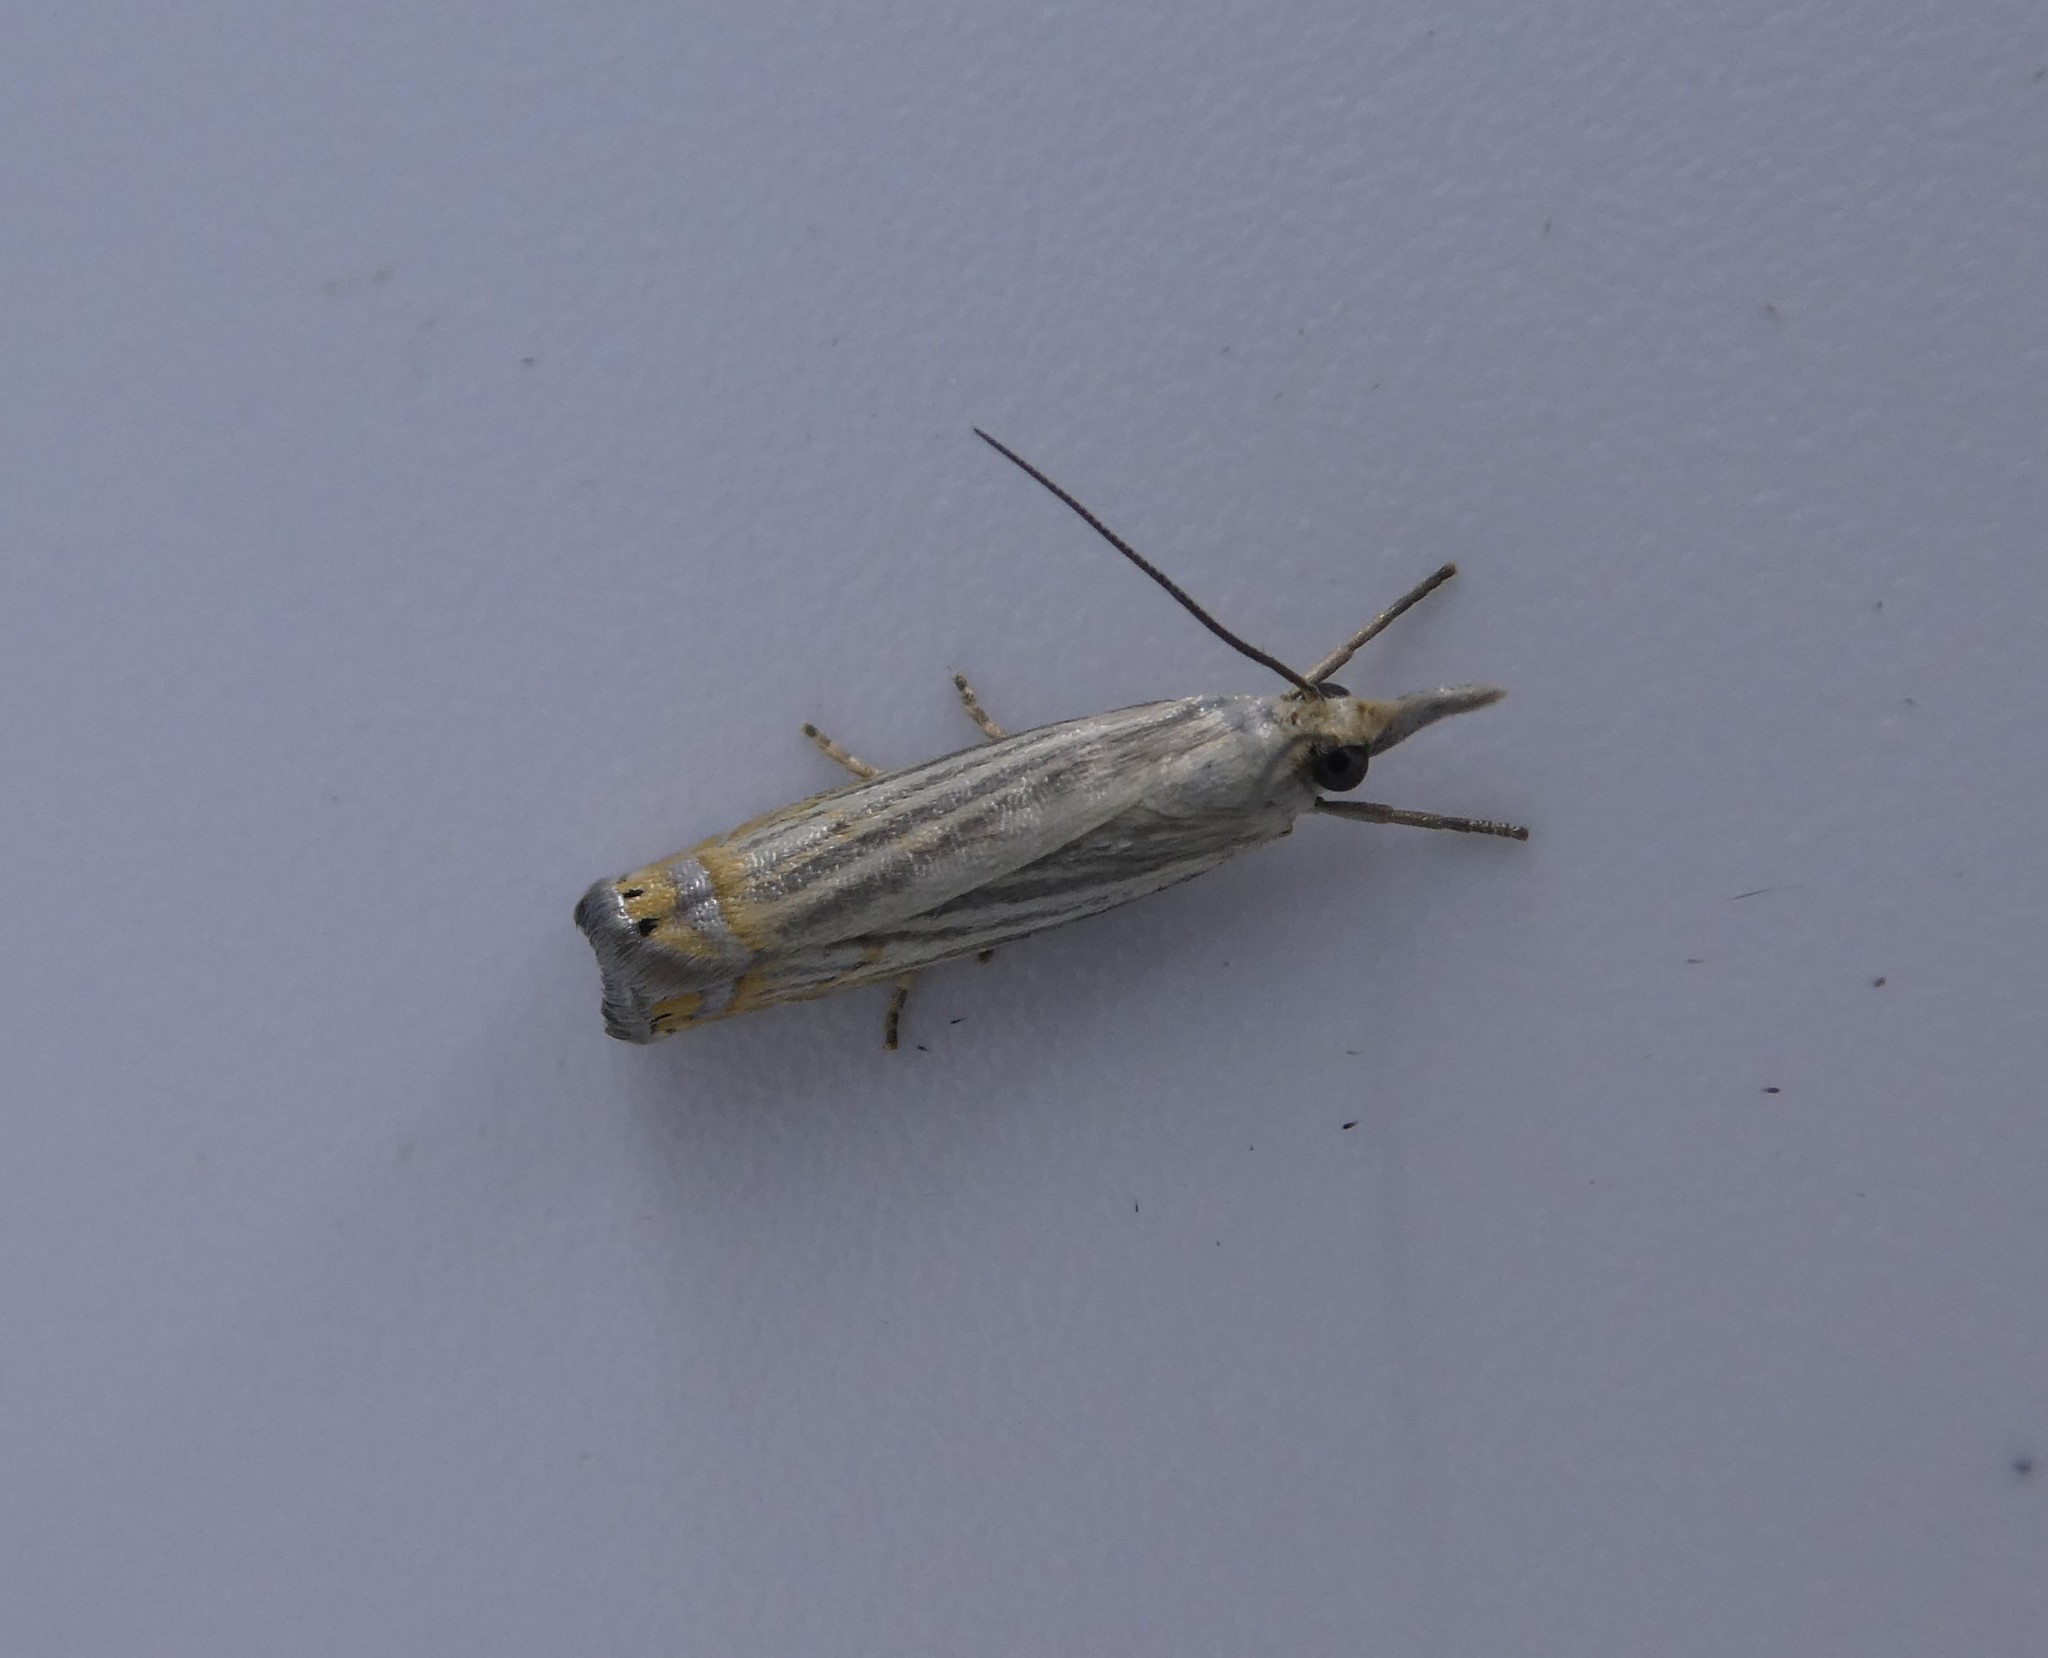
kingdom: Animalia
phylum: Arthropoda
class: Insecta
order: Lepidoptera
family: Crambidae
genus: Chrysoteuchia
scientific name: Chrysoteuchia topiarius
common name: Topiary grass-veneer
